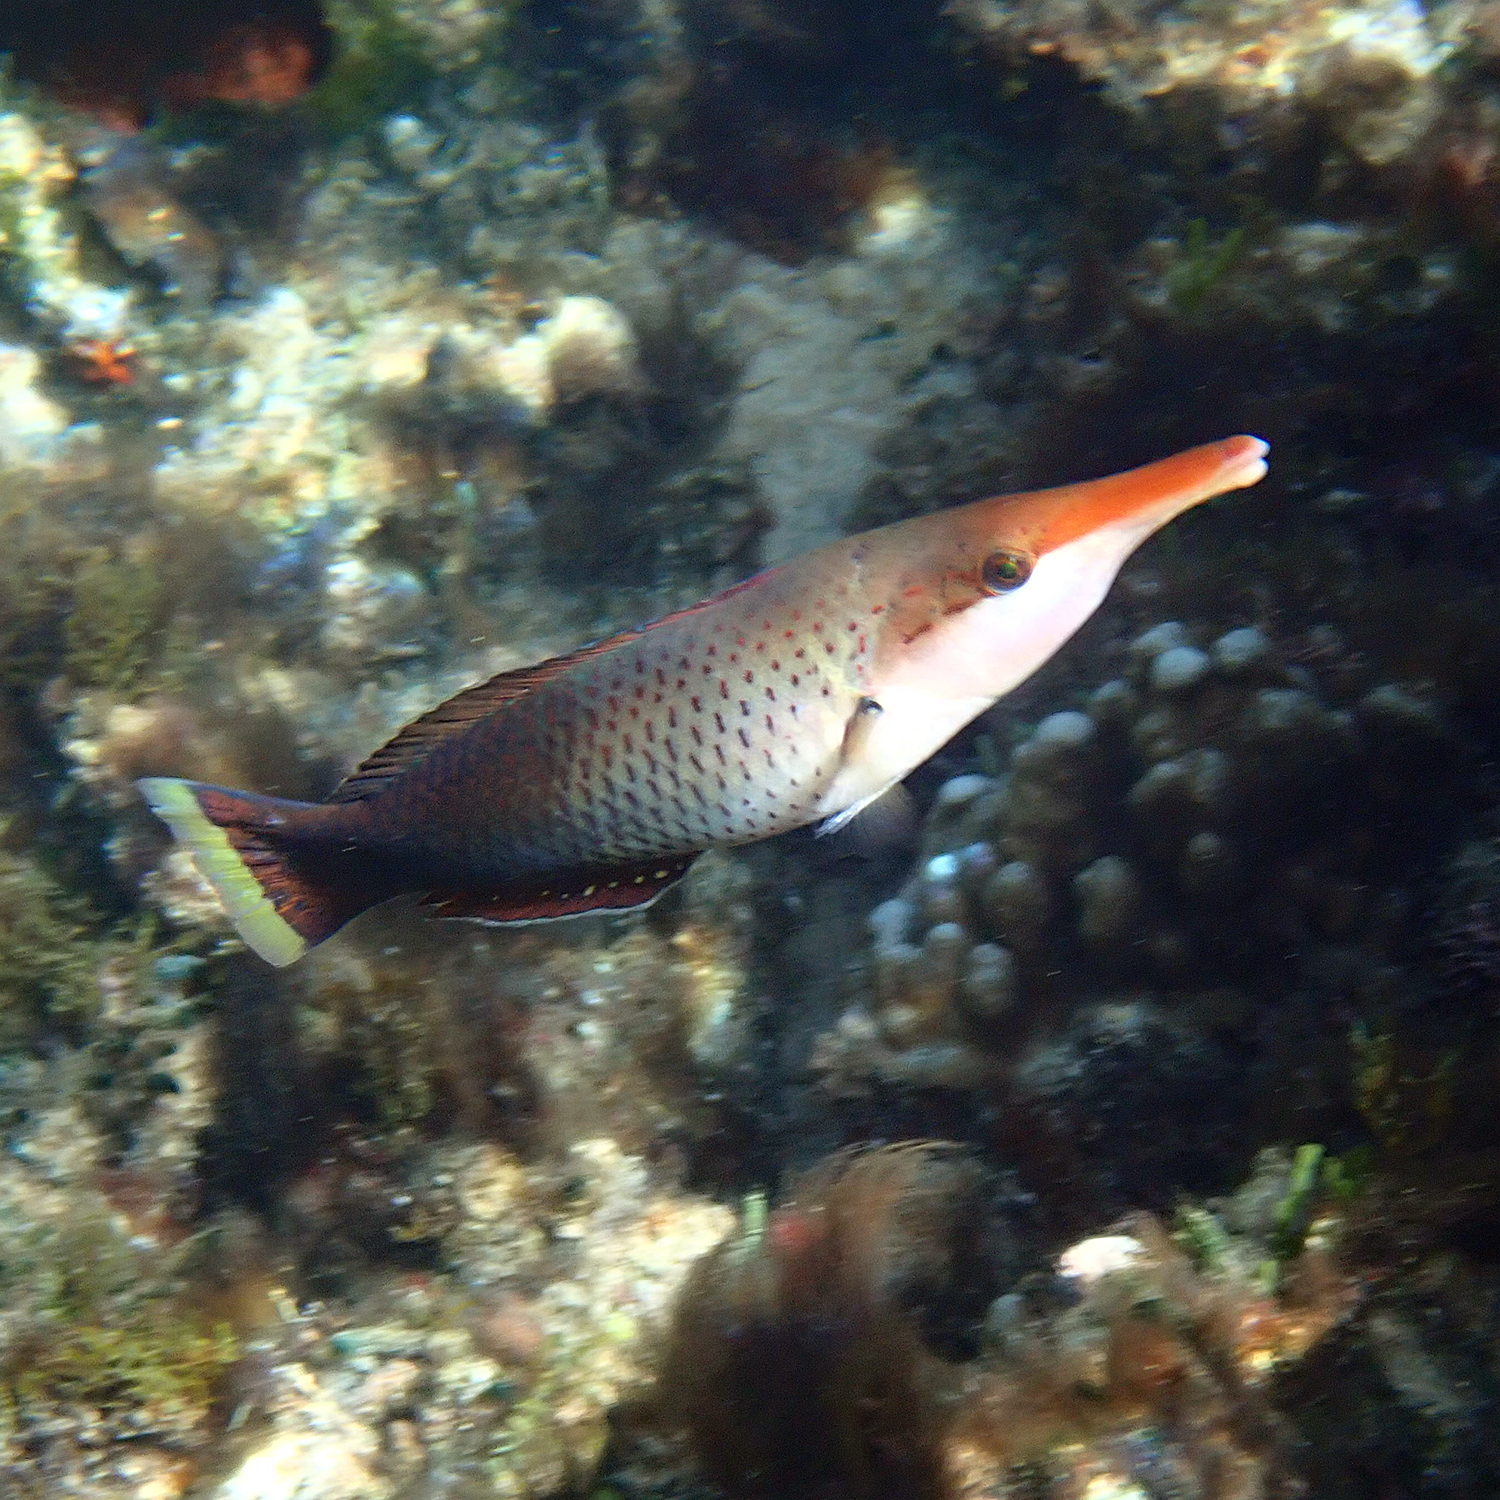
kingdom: Animalia
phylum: Chordata
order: Perciformes
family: Labridae
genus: Gomphosus
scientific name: Gomphosus varius
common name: Bird wrasse
